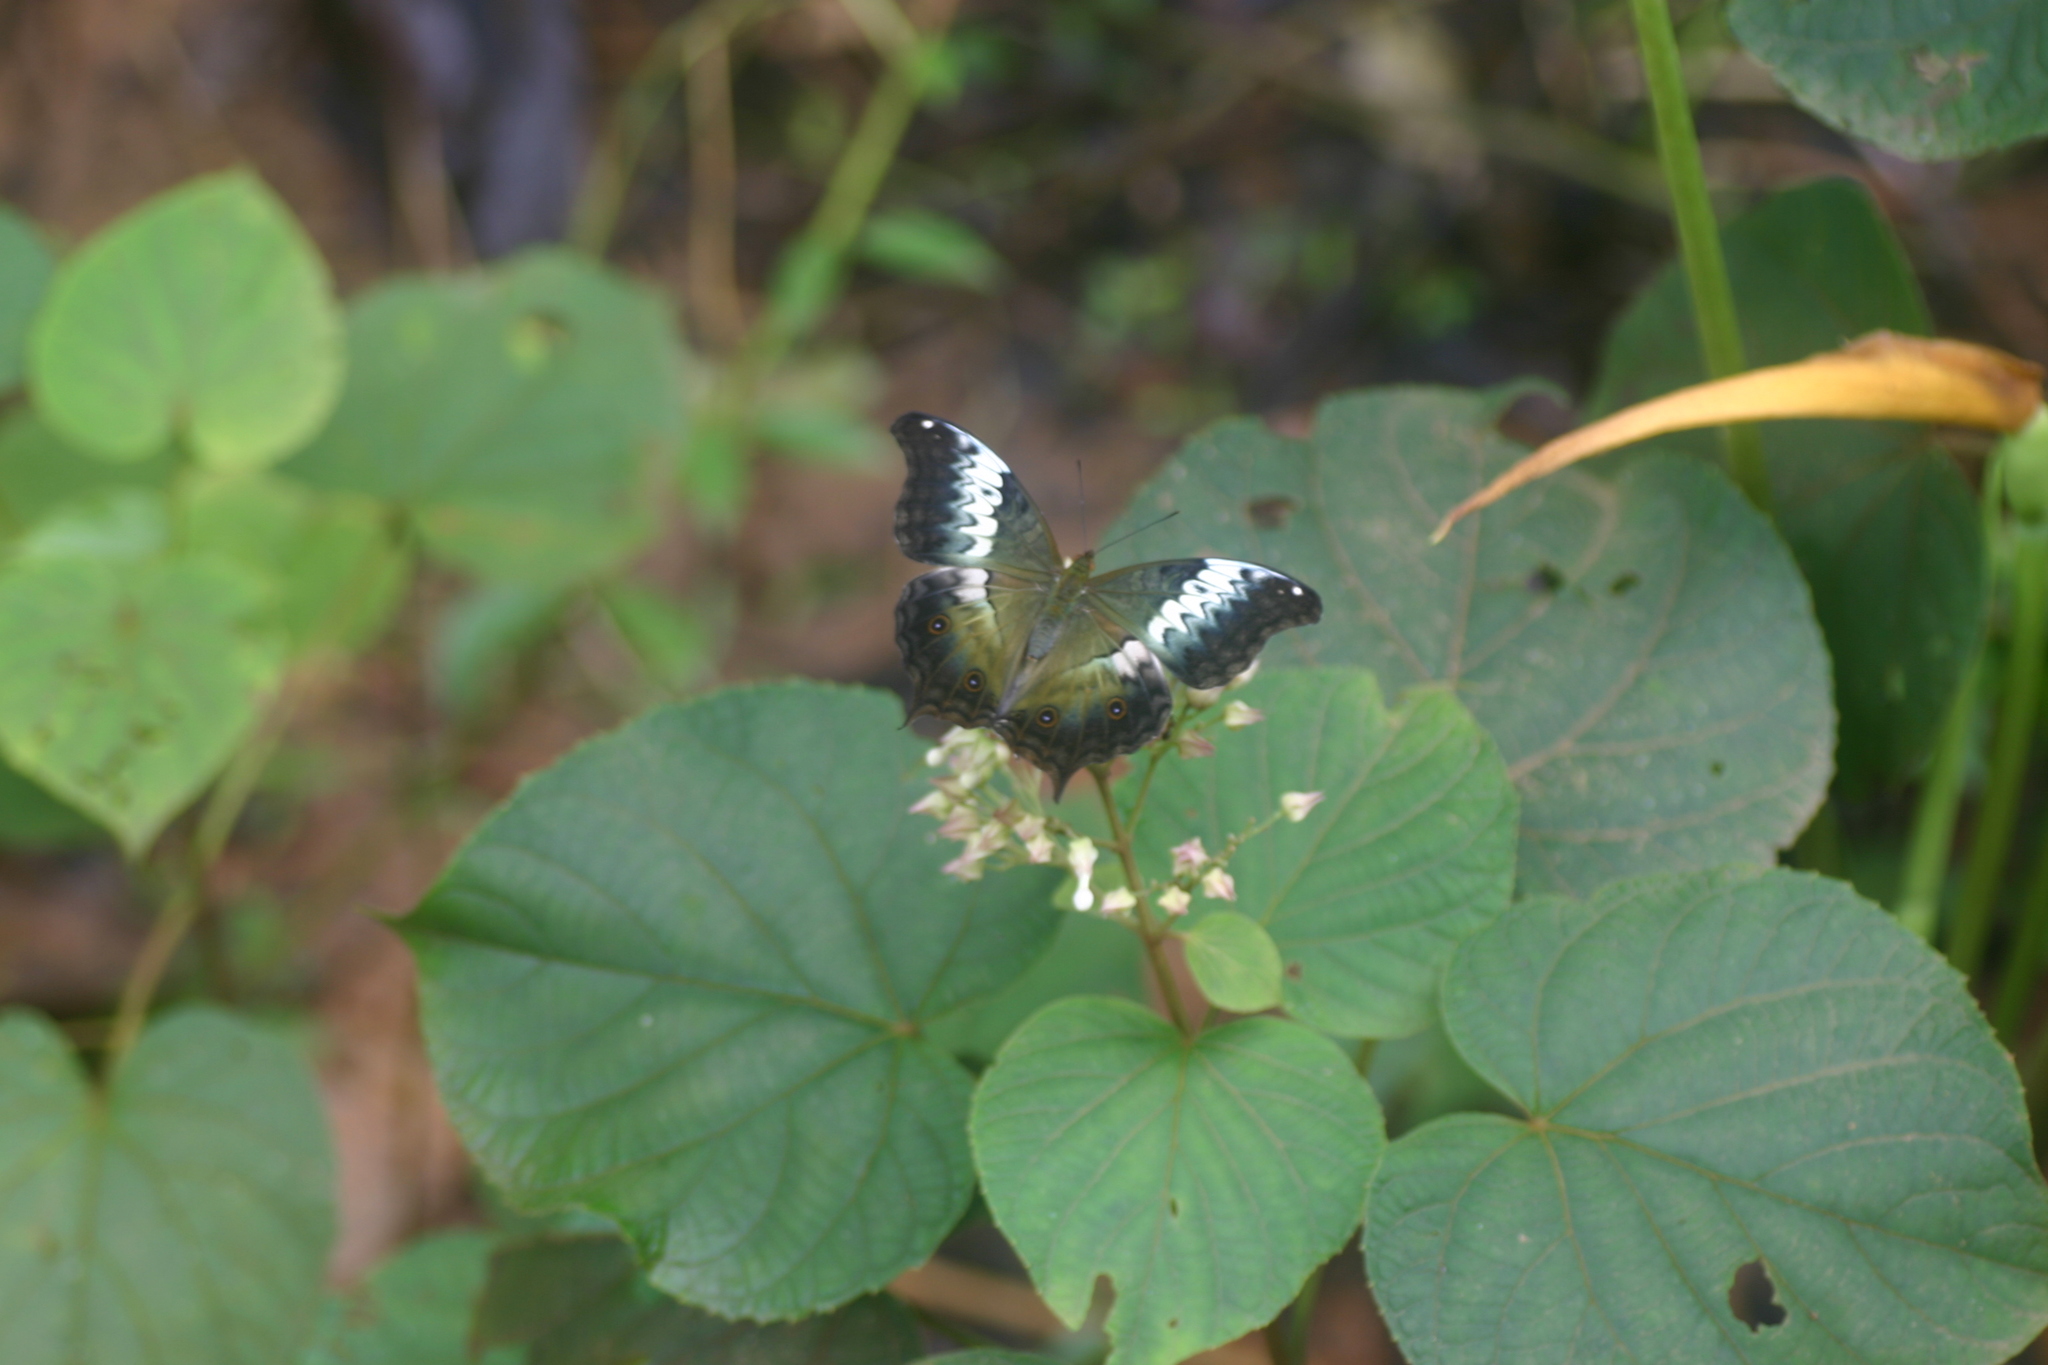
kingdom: Animalia
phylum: Arthropoda
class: Insecta
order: Lepidoptera
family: Nymphalidae
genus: Vindula
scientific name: Vindula erota
